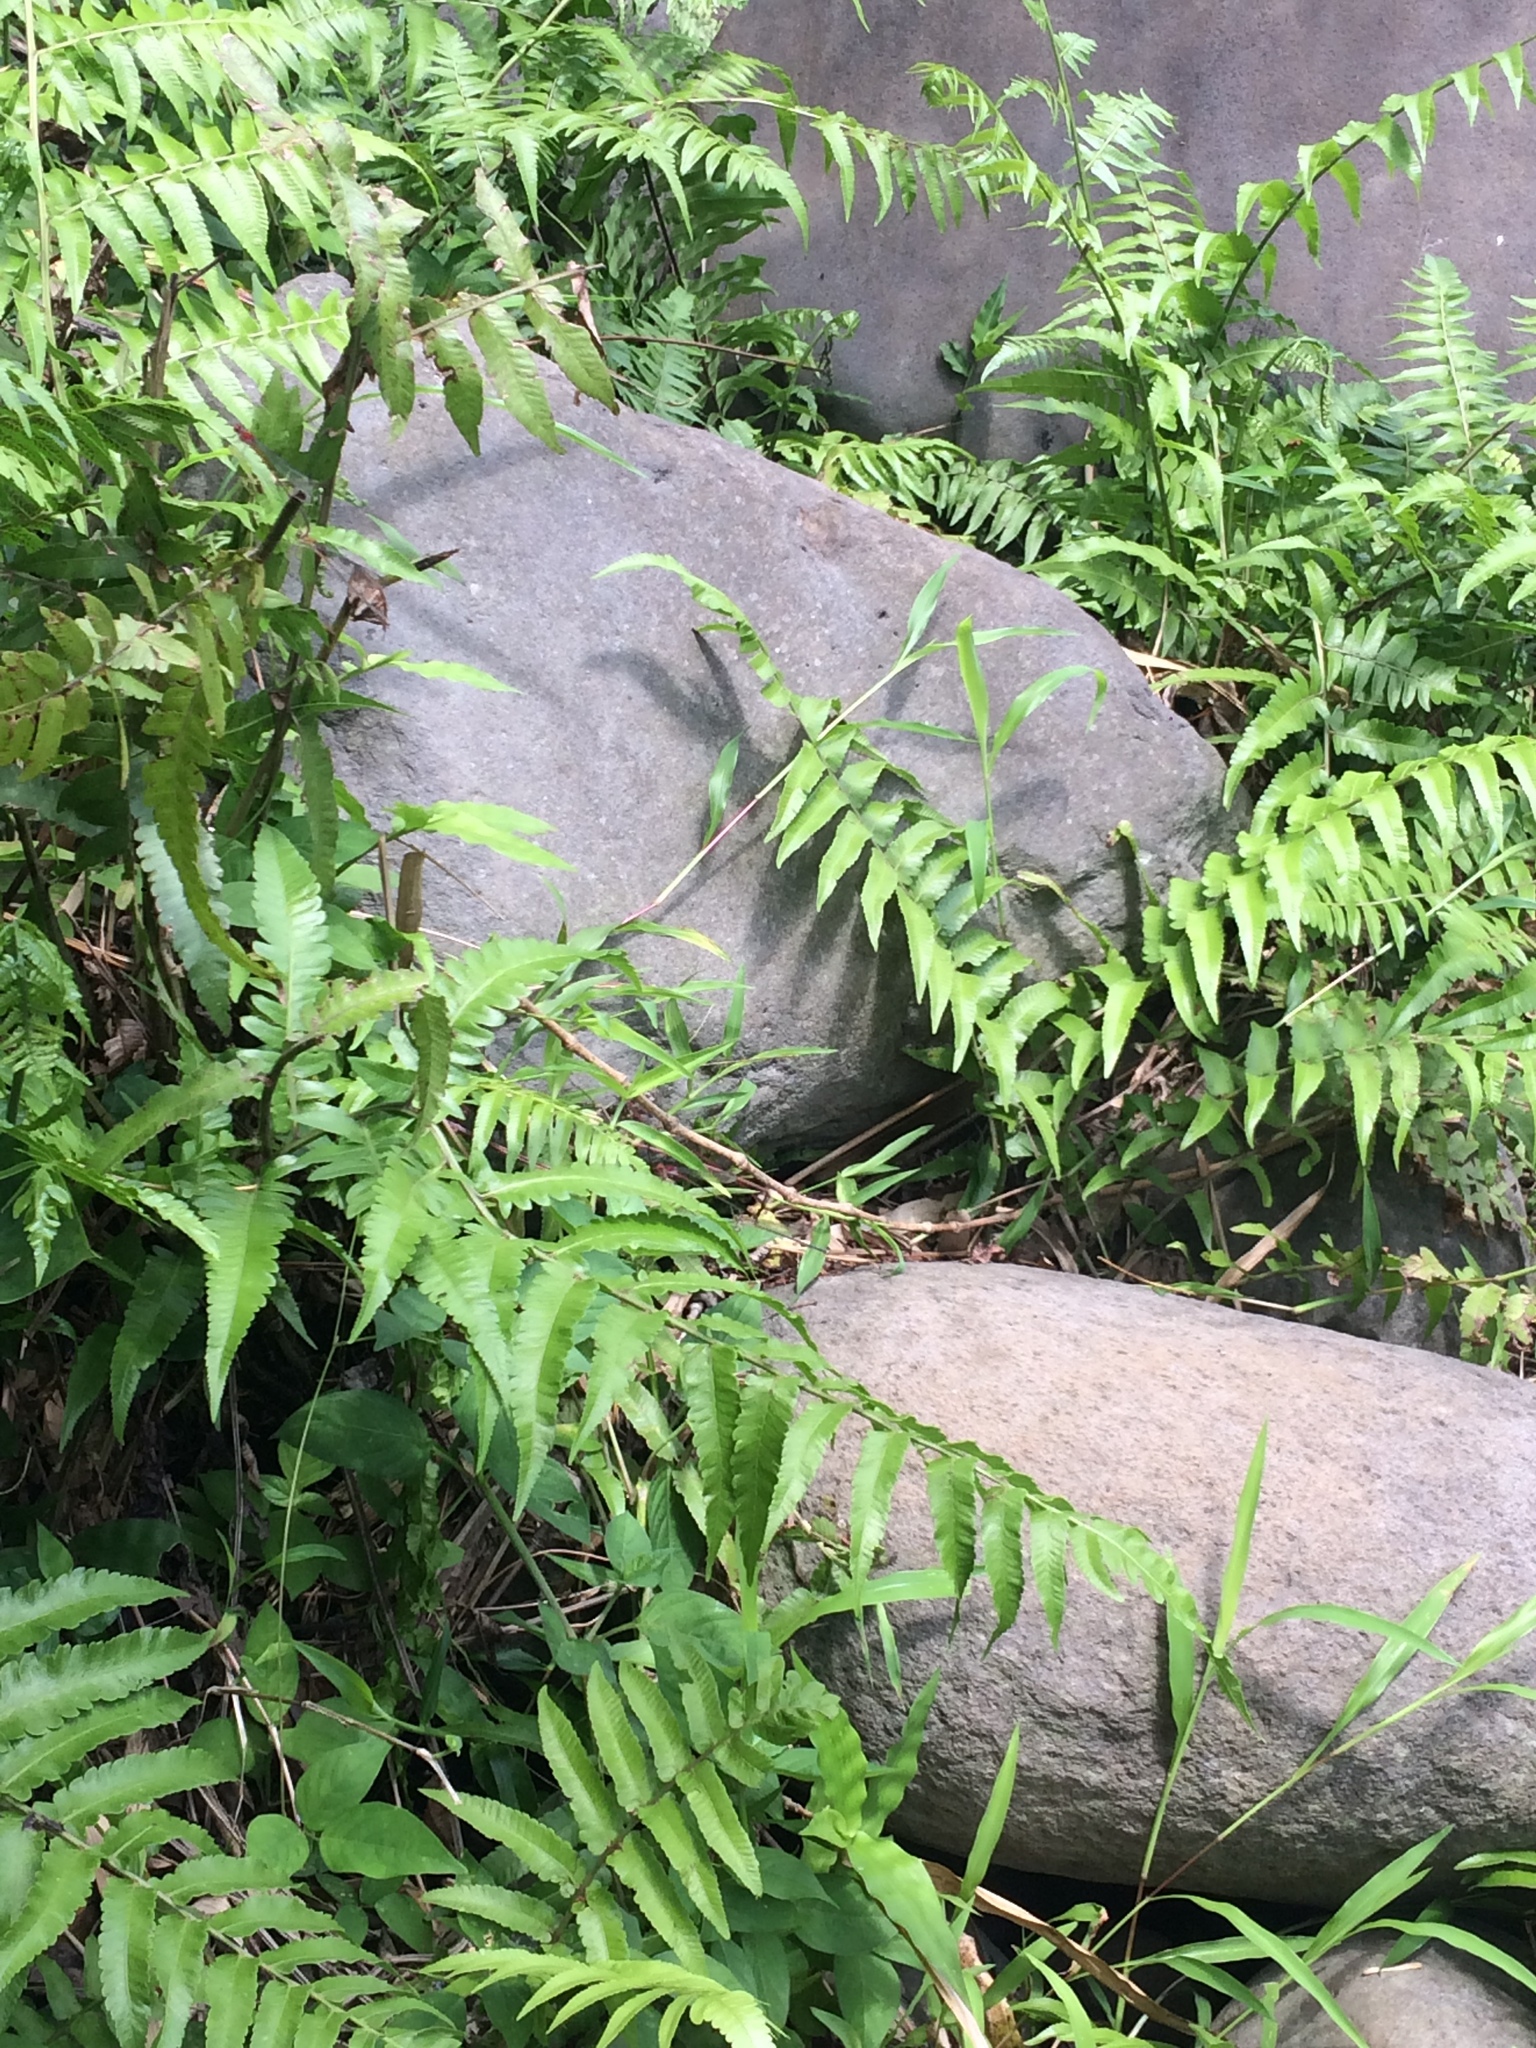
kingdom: Plantae
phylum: Tracheophyta
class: Polypodiopsida
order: Polypodiales
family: Athyriaceae
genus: Diplazium
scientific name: Diplazium esculentum
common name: Vegetable fern
